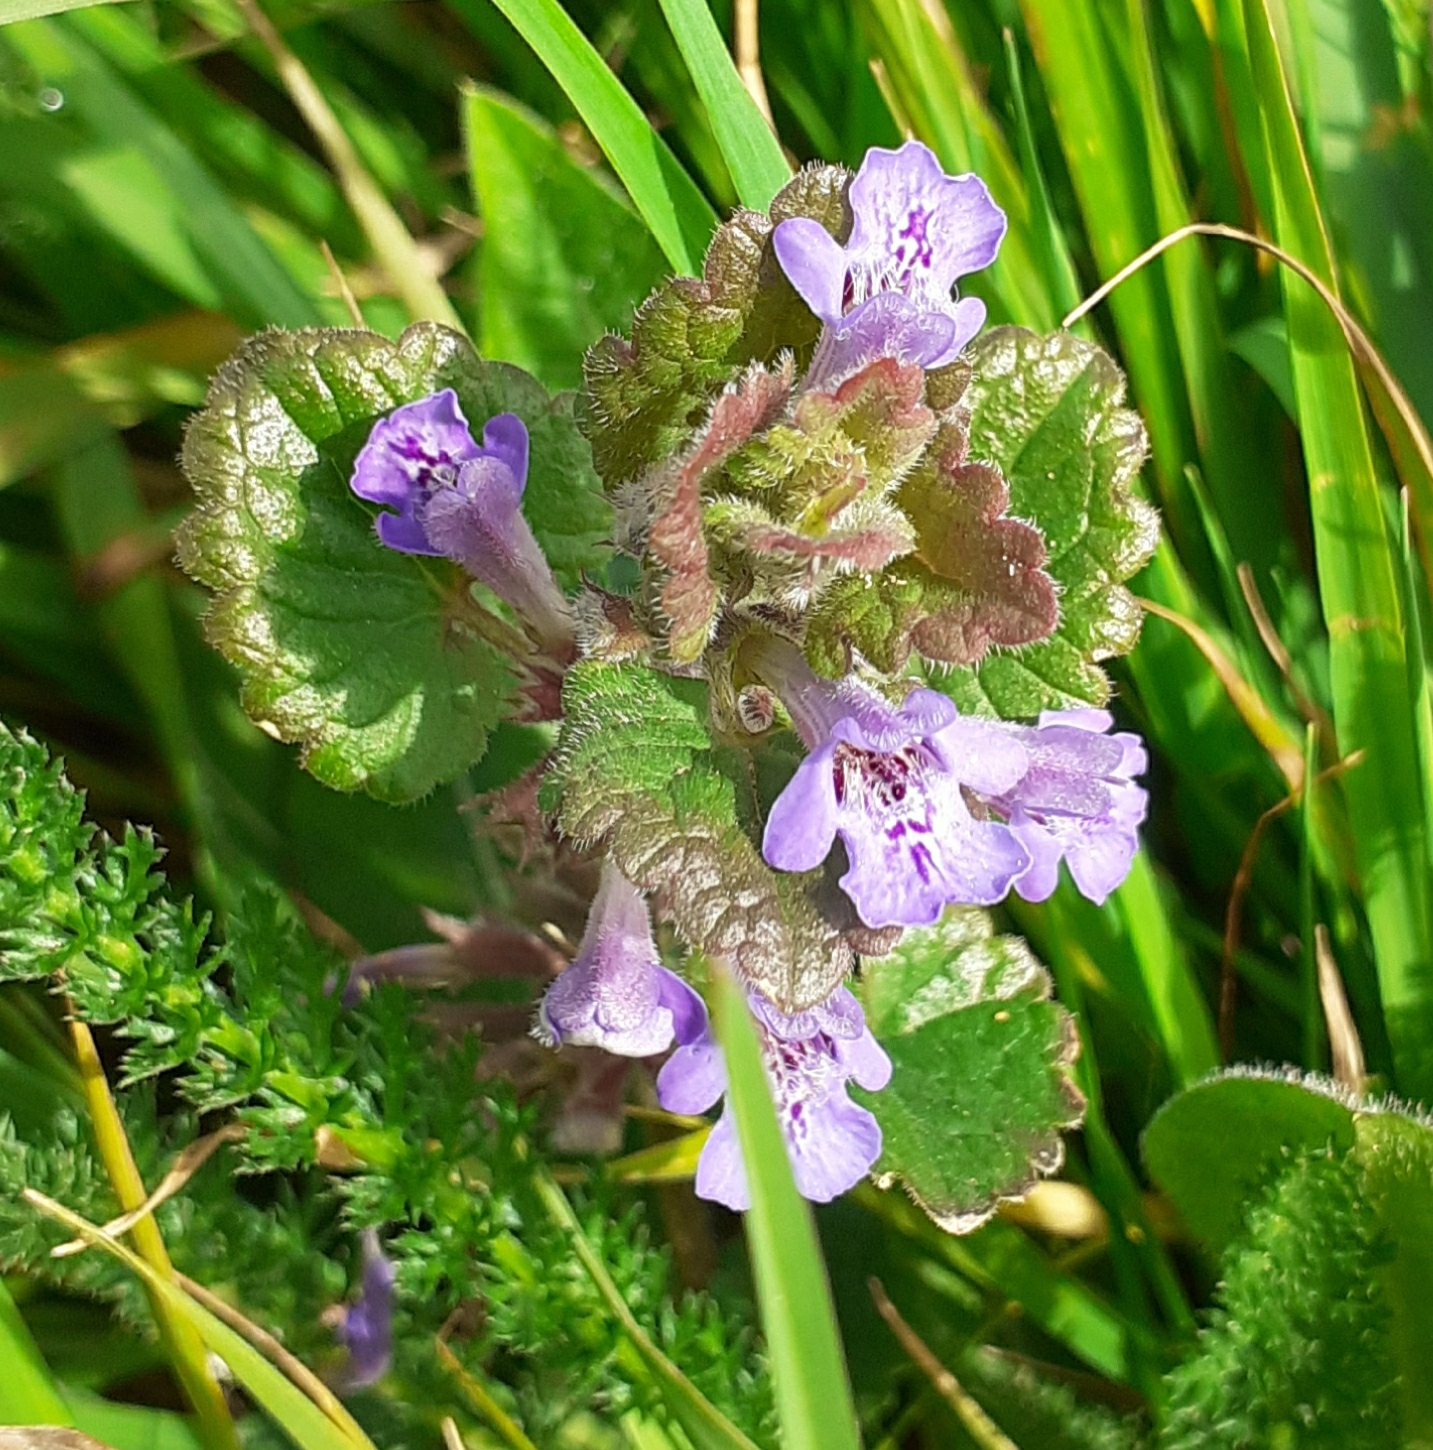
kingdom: Plantae
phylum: Tracheophyta
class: Magnoliopsida
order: Lamiales
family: Lamiaceae
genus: Glechoma
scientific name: Glechoma hederacea
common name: Ground ivy
